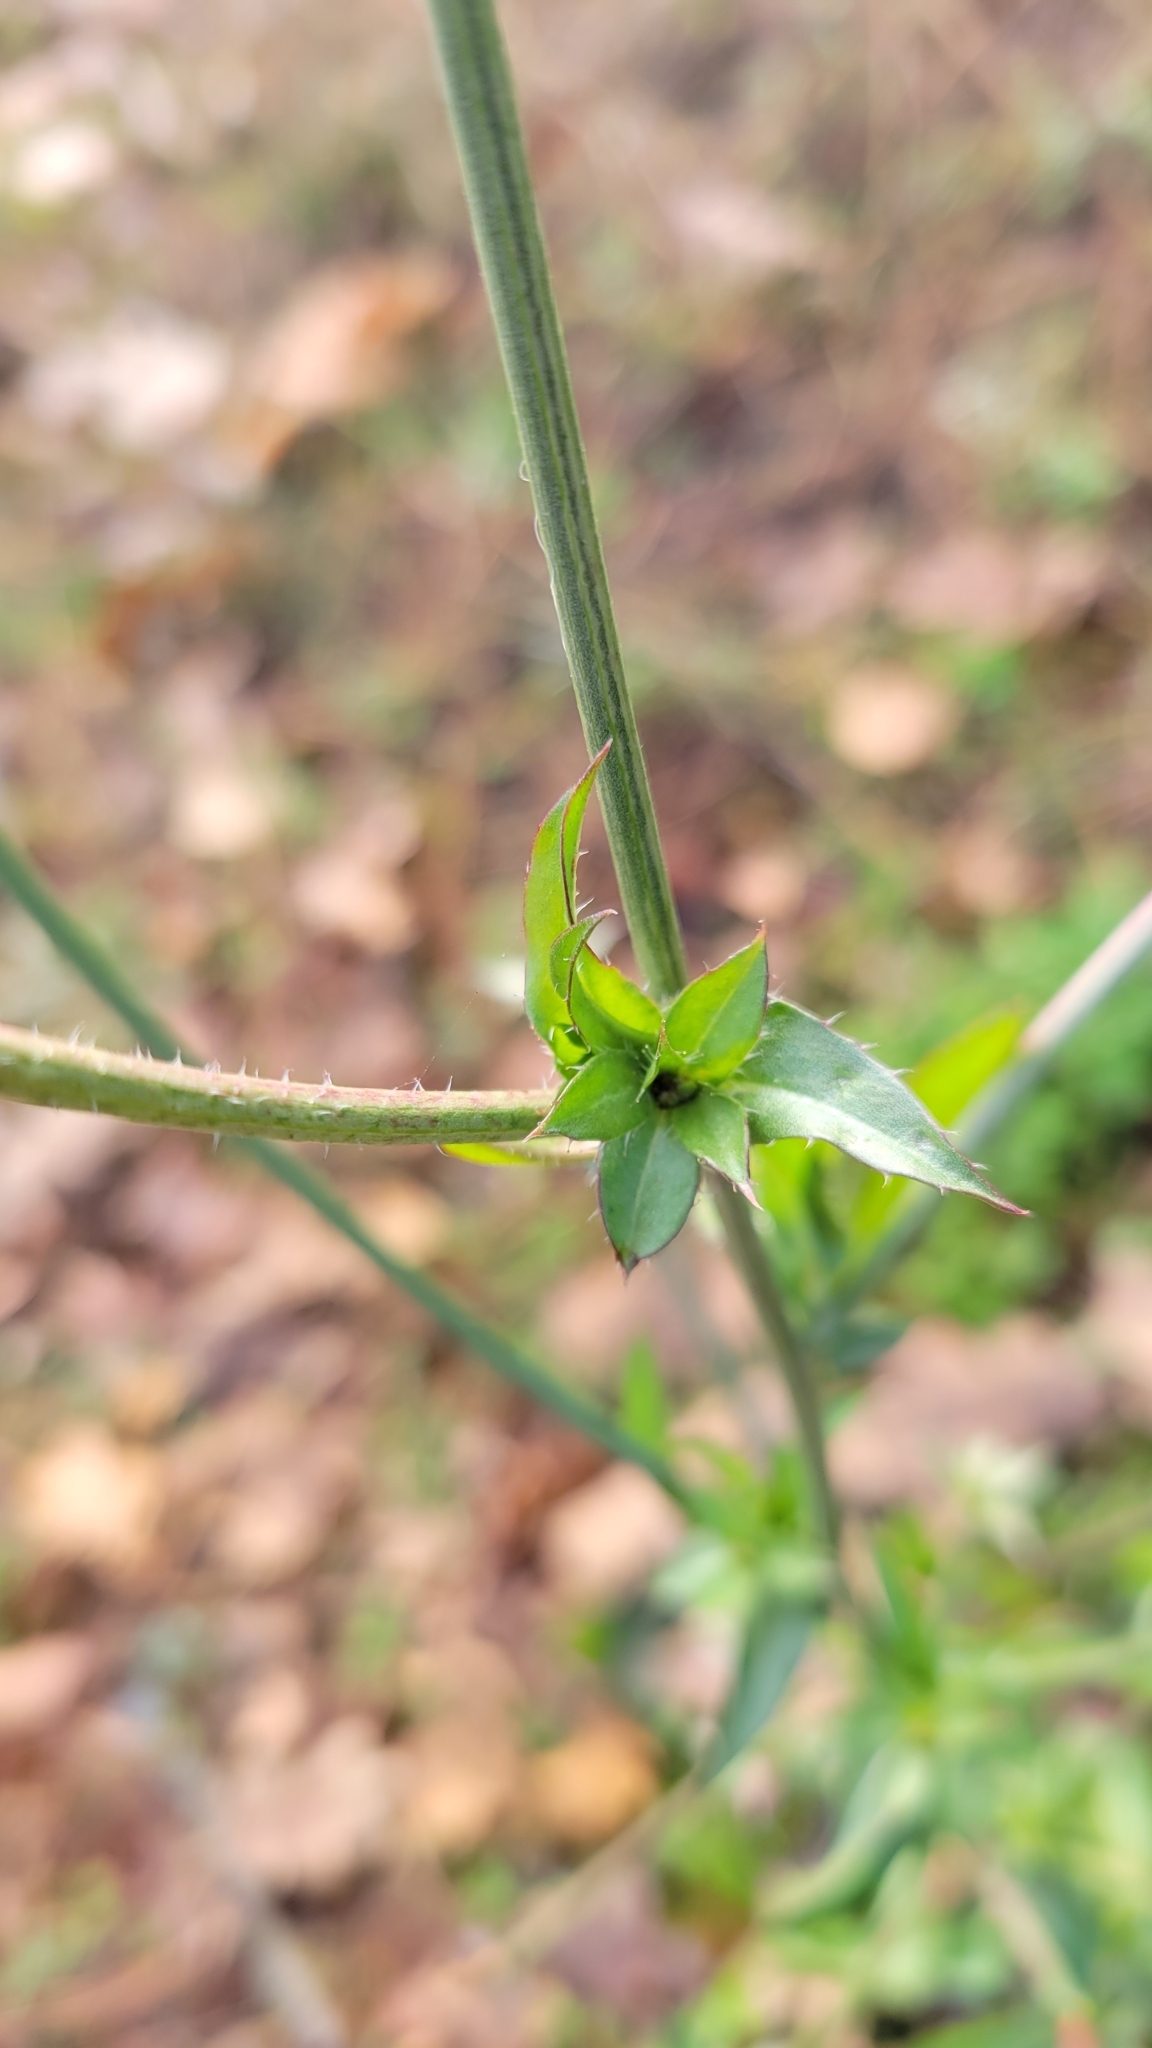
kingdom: Plantae
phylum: Tracheophyta
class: Magnoliopsida
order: Asterales
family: Asteraceae
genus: Cichorium
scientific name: Cichorium intybus
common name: Chicory
